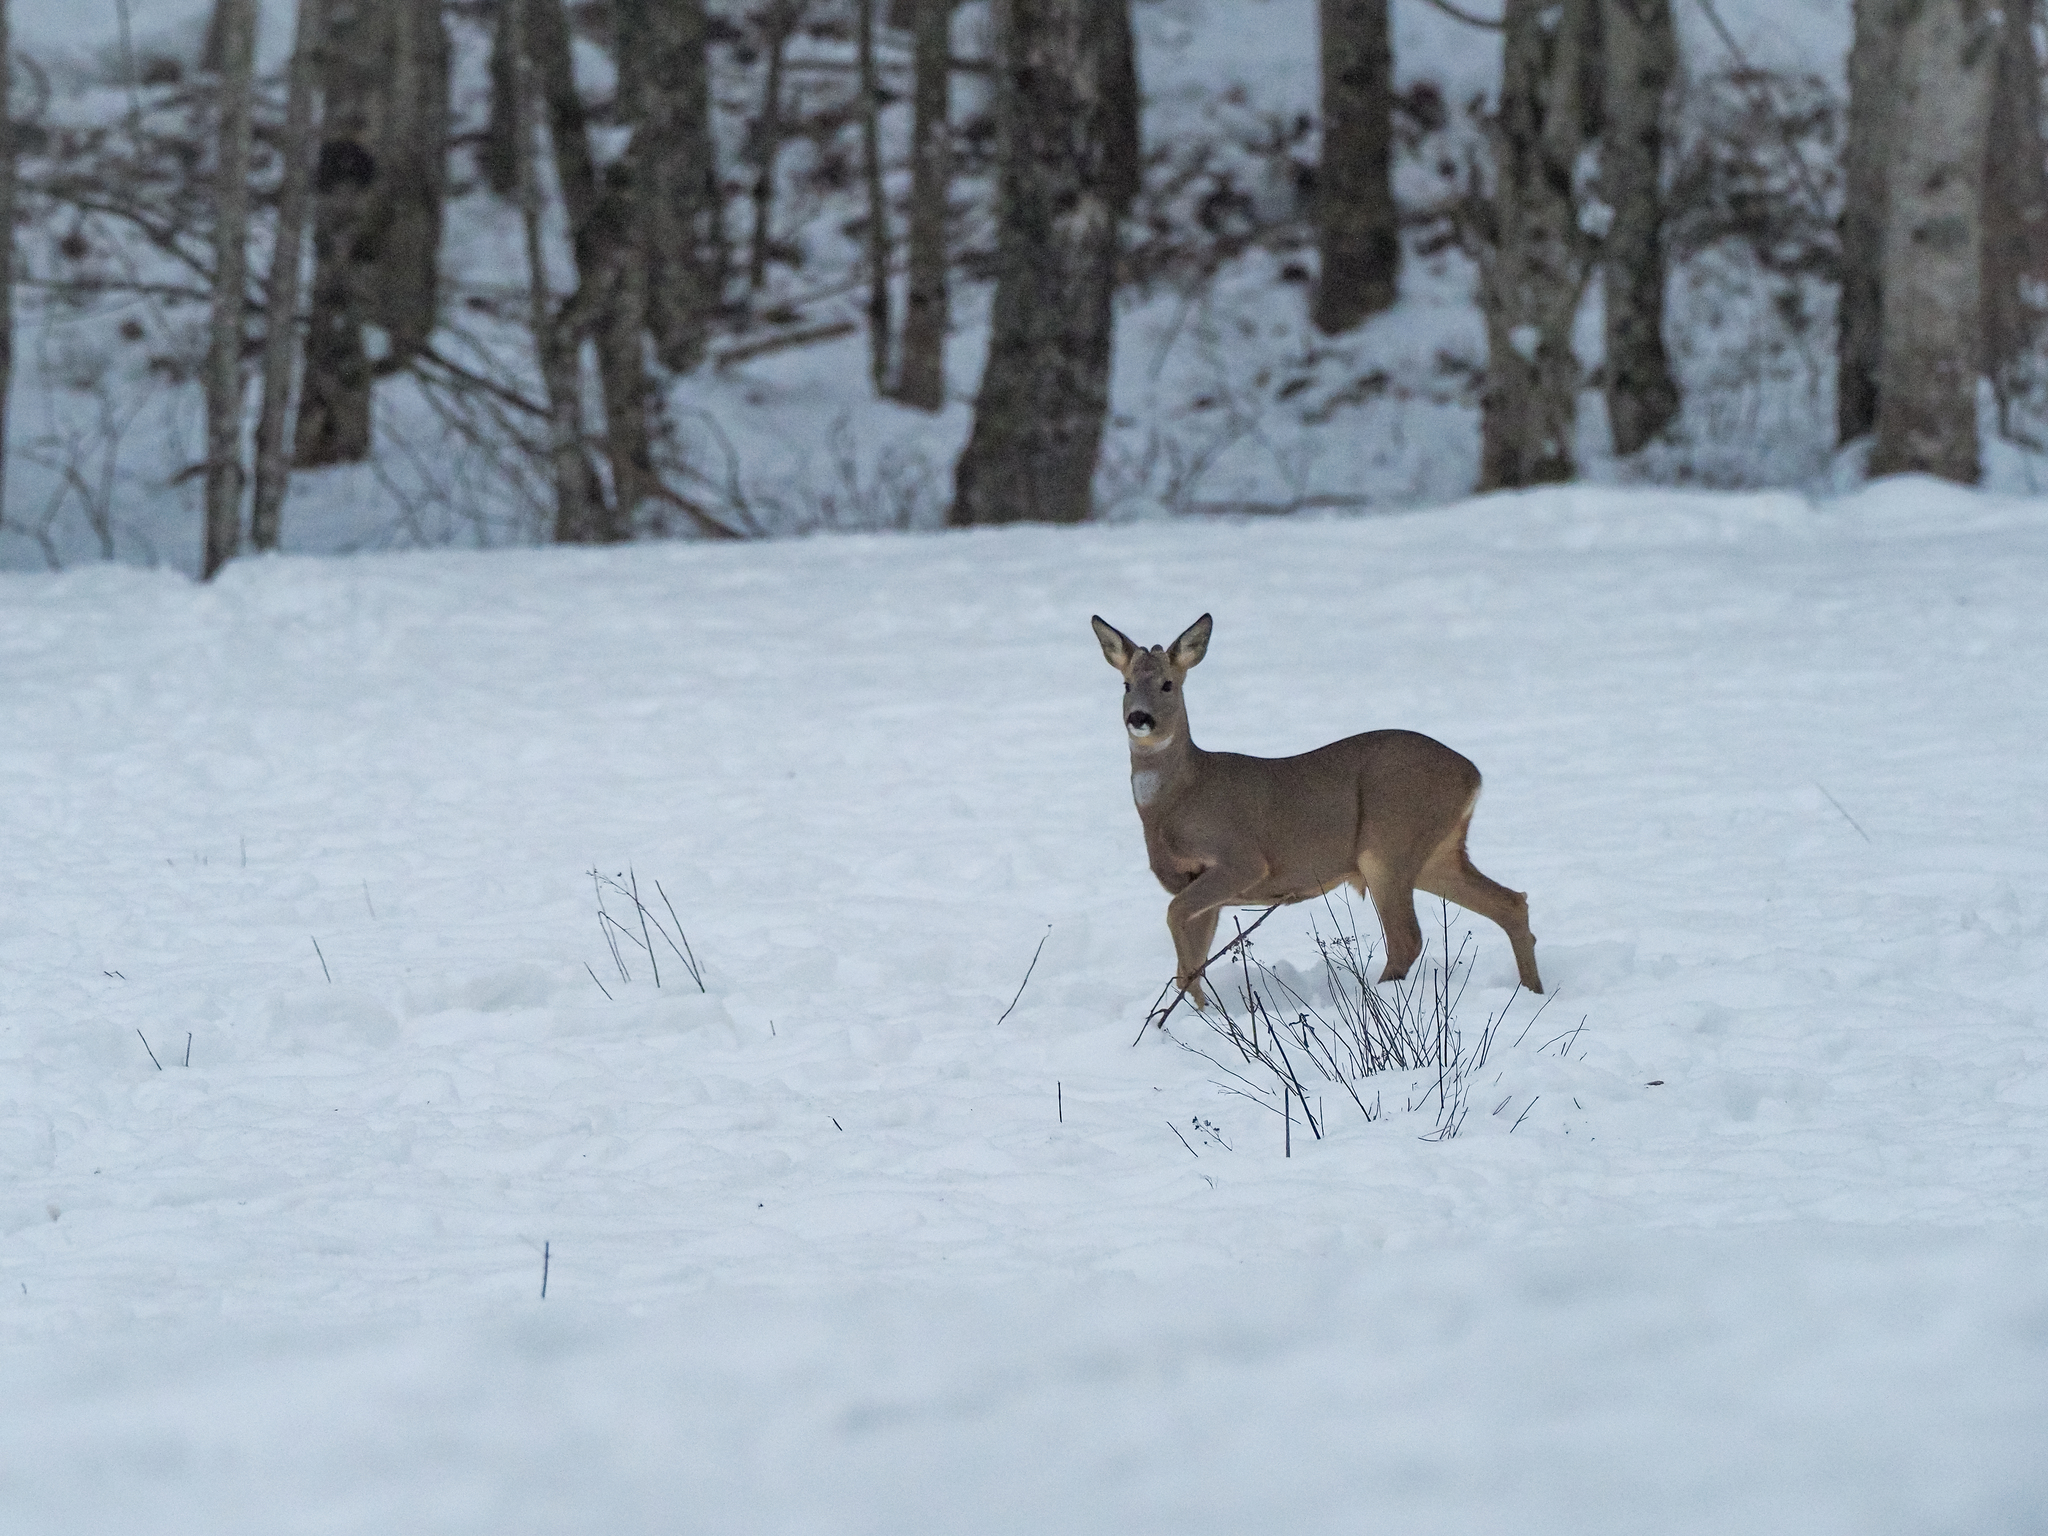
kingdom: Animalia
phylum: Chordata
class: Mammalia
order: Artiodactyla
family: Cervidae
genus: Capreolus
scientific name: Capreolus capreolus
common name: Western roe deer
